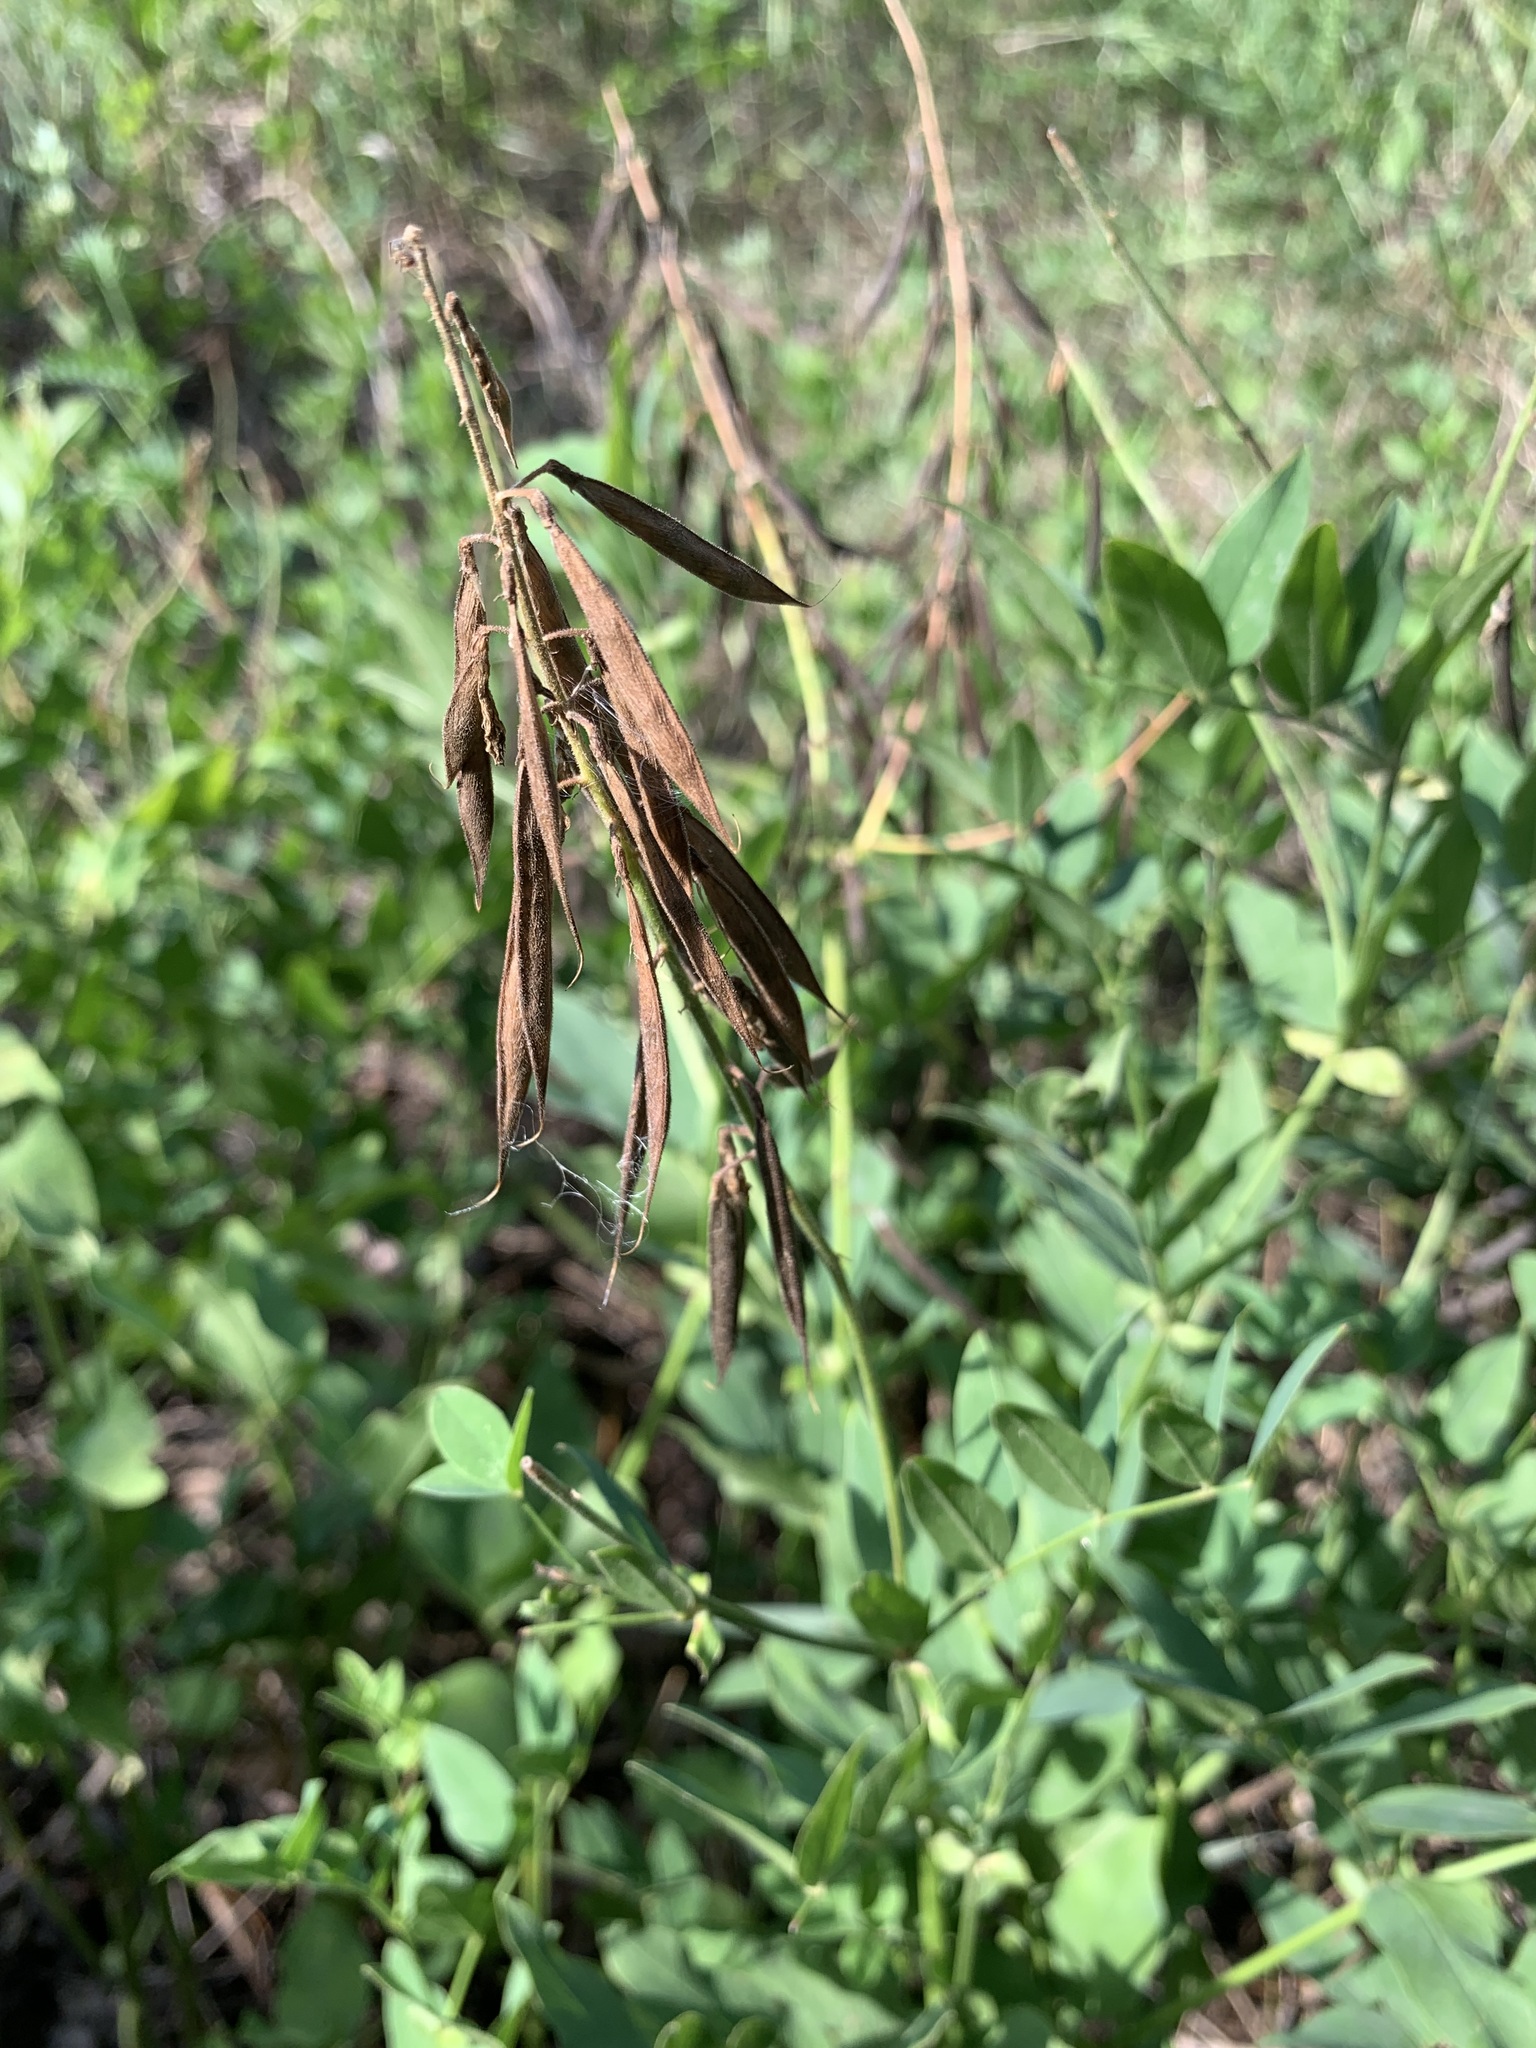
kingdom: Plantae
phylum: Tracheophyta
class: Magnoliopsida
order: Fabales
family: Fabaceae
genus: Galega
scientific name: Galega orientalis
